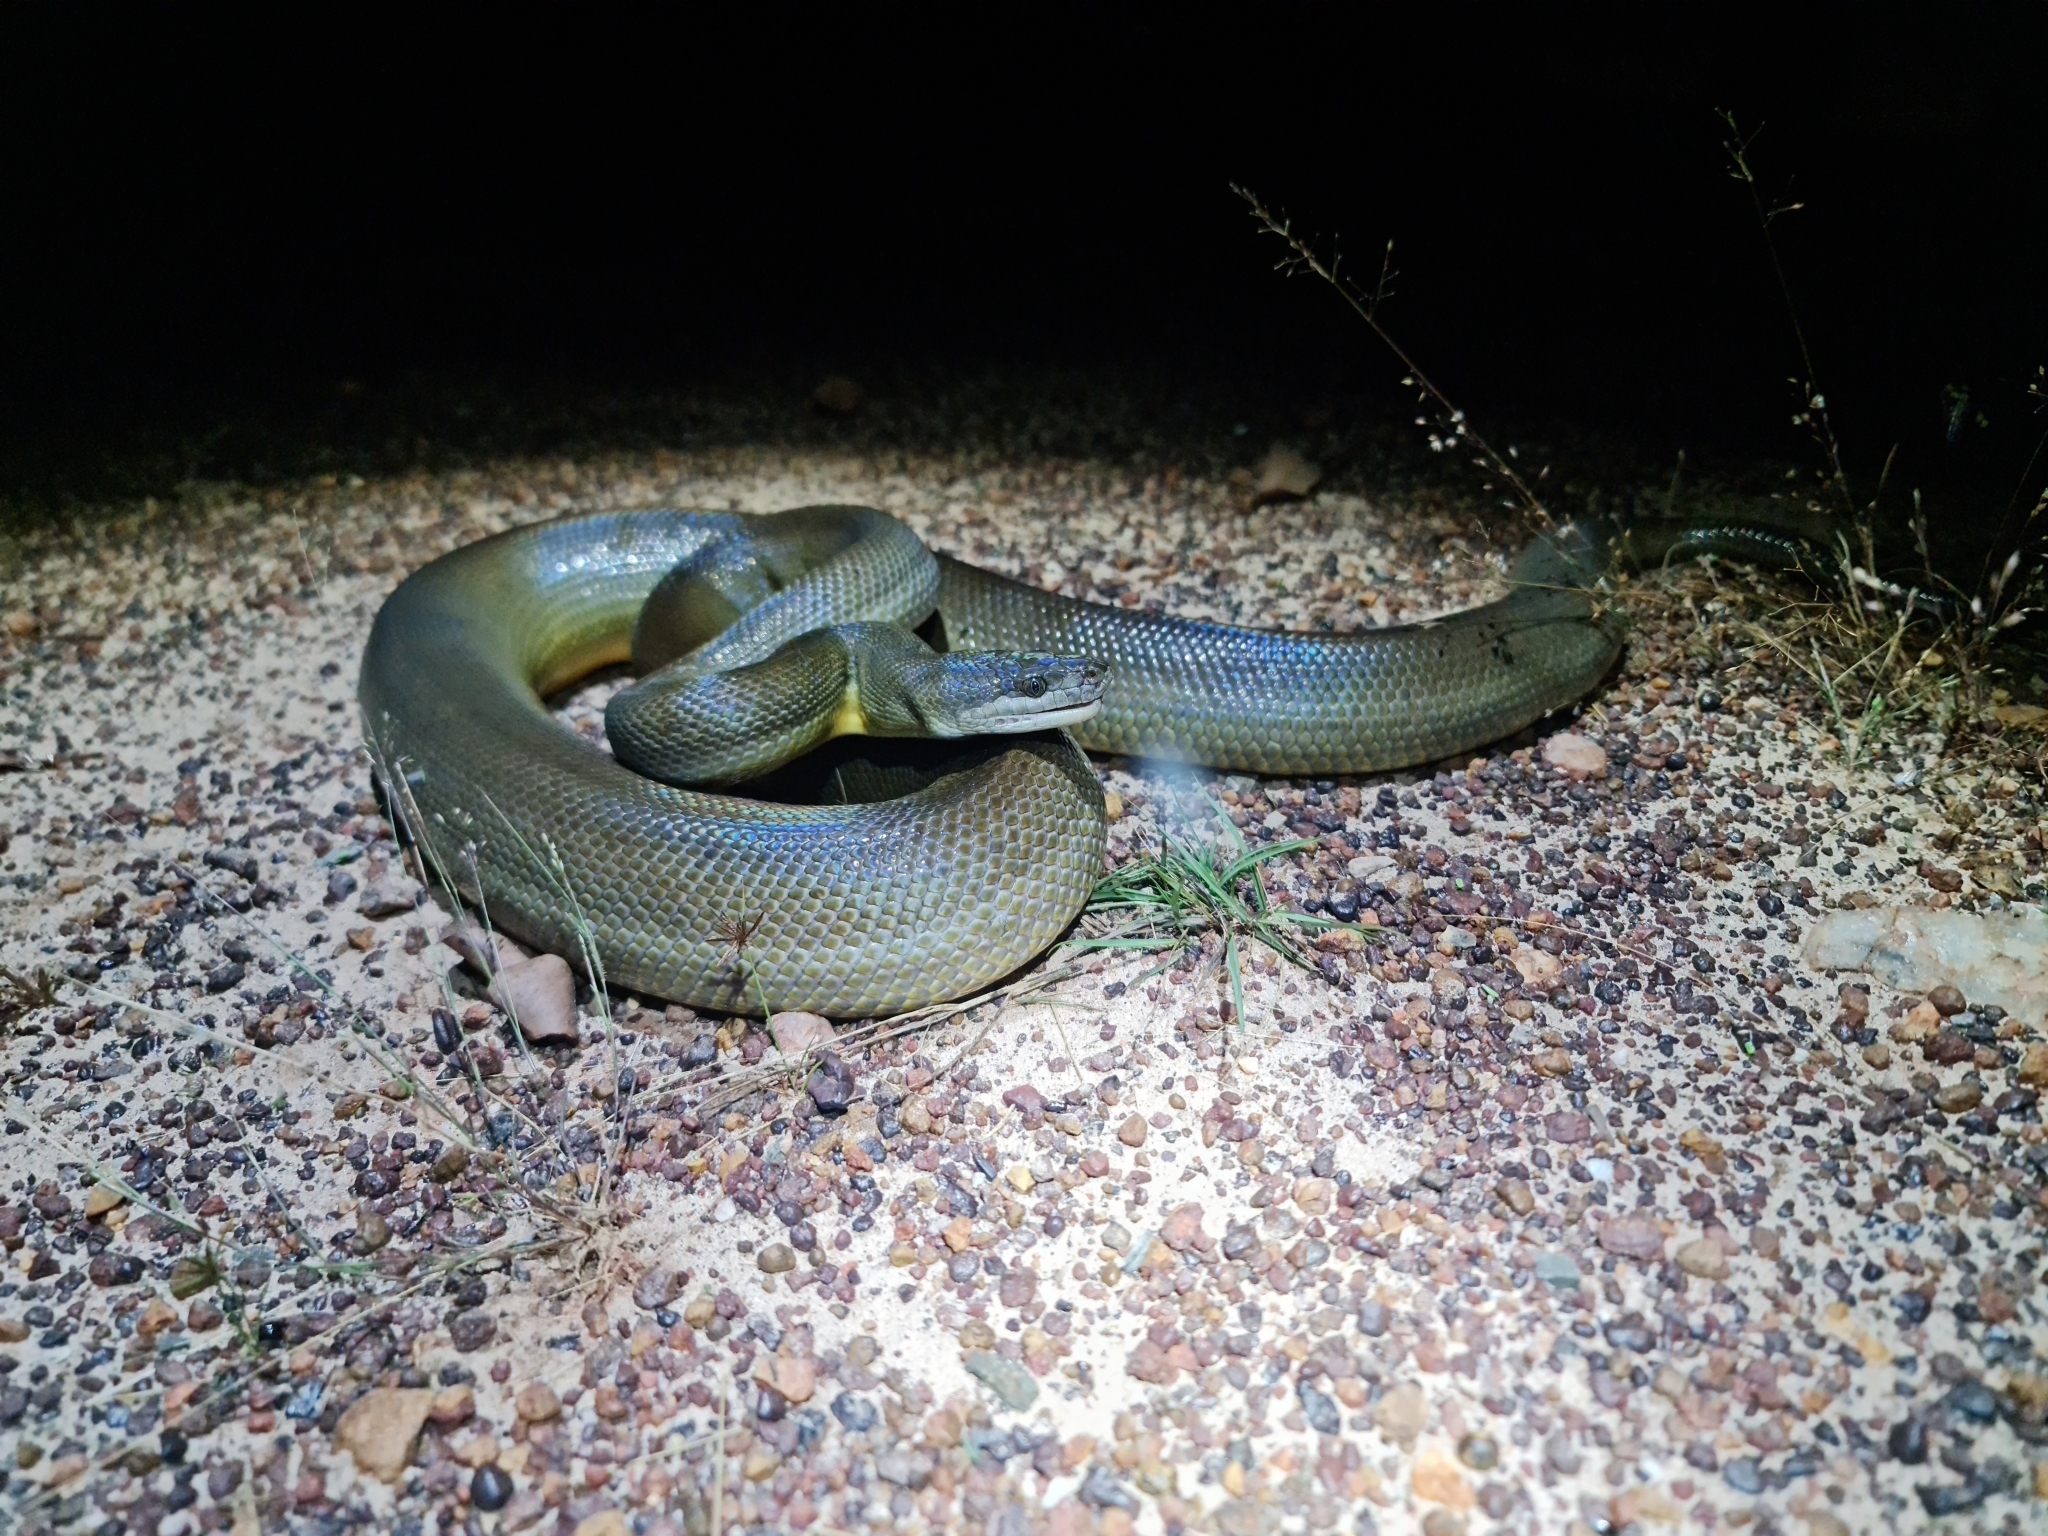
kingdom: Animalia
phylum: Chordata
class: Squamata
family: Pythonidae
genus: Liasis
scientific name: Liasis fuscus
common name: Brown water python
